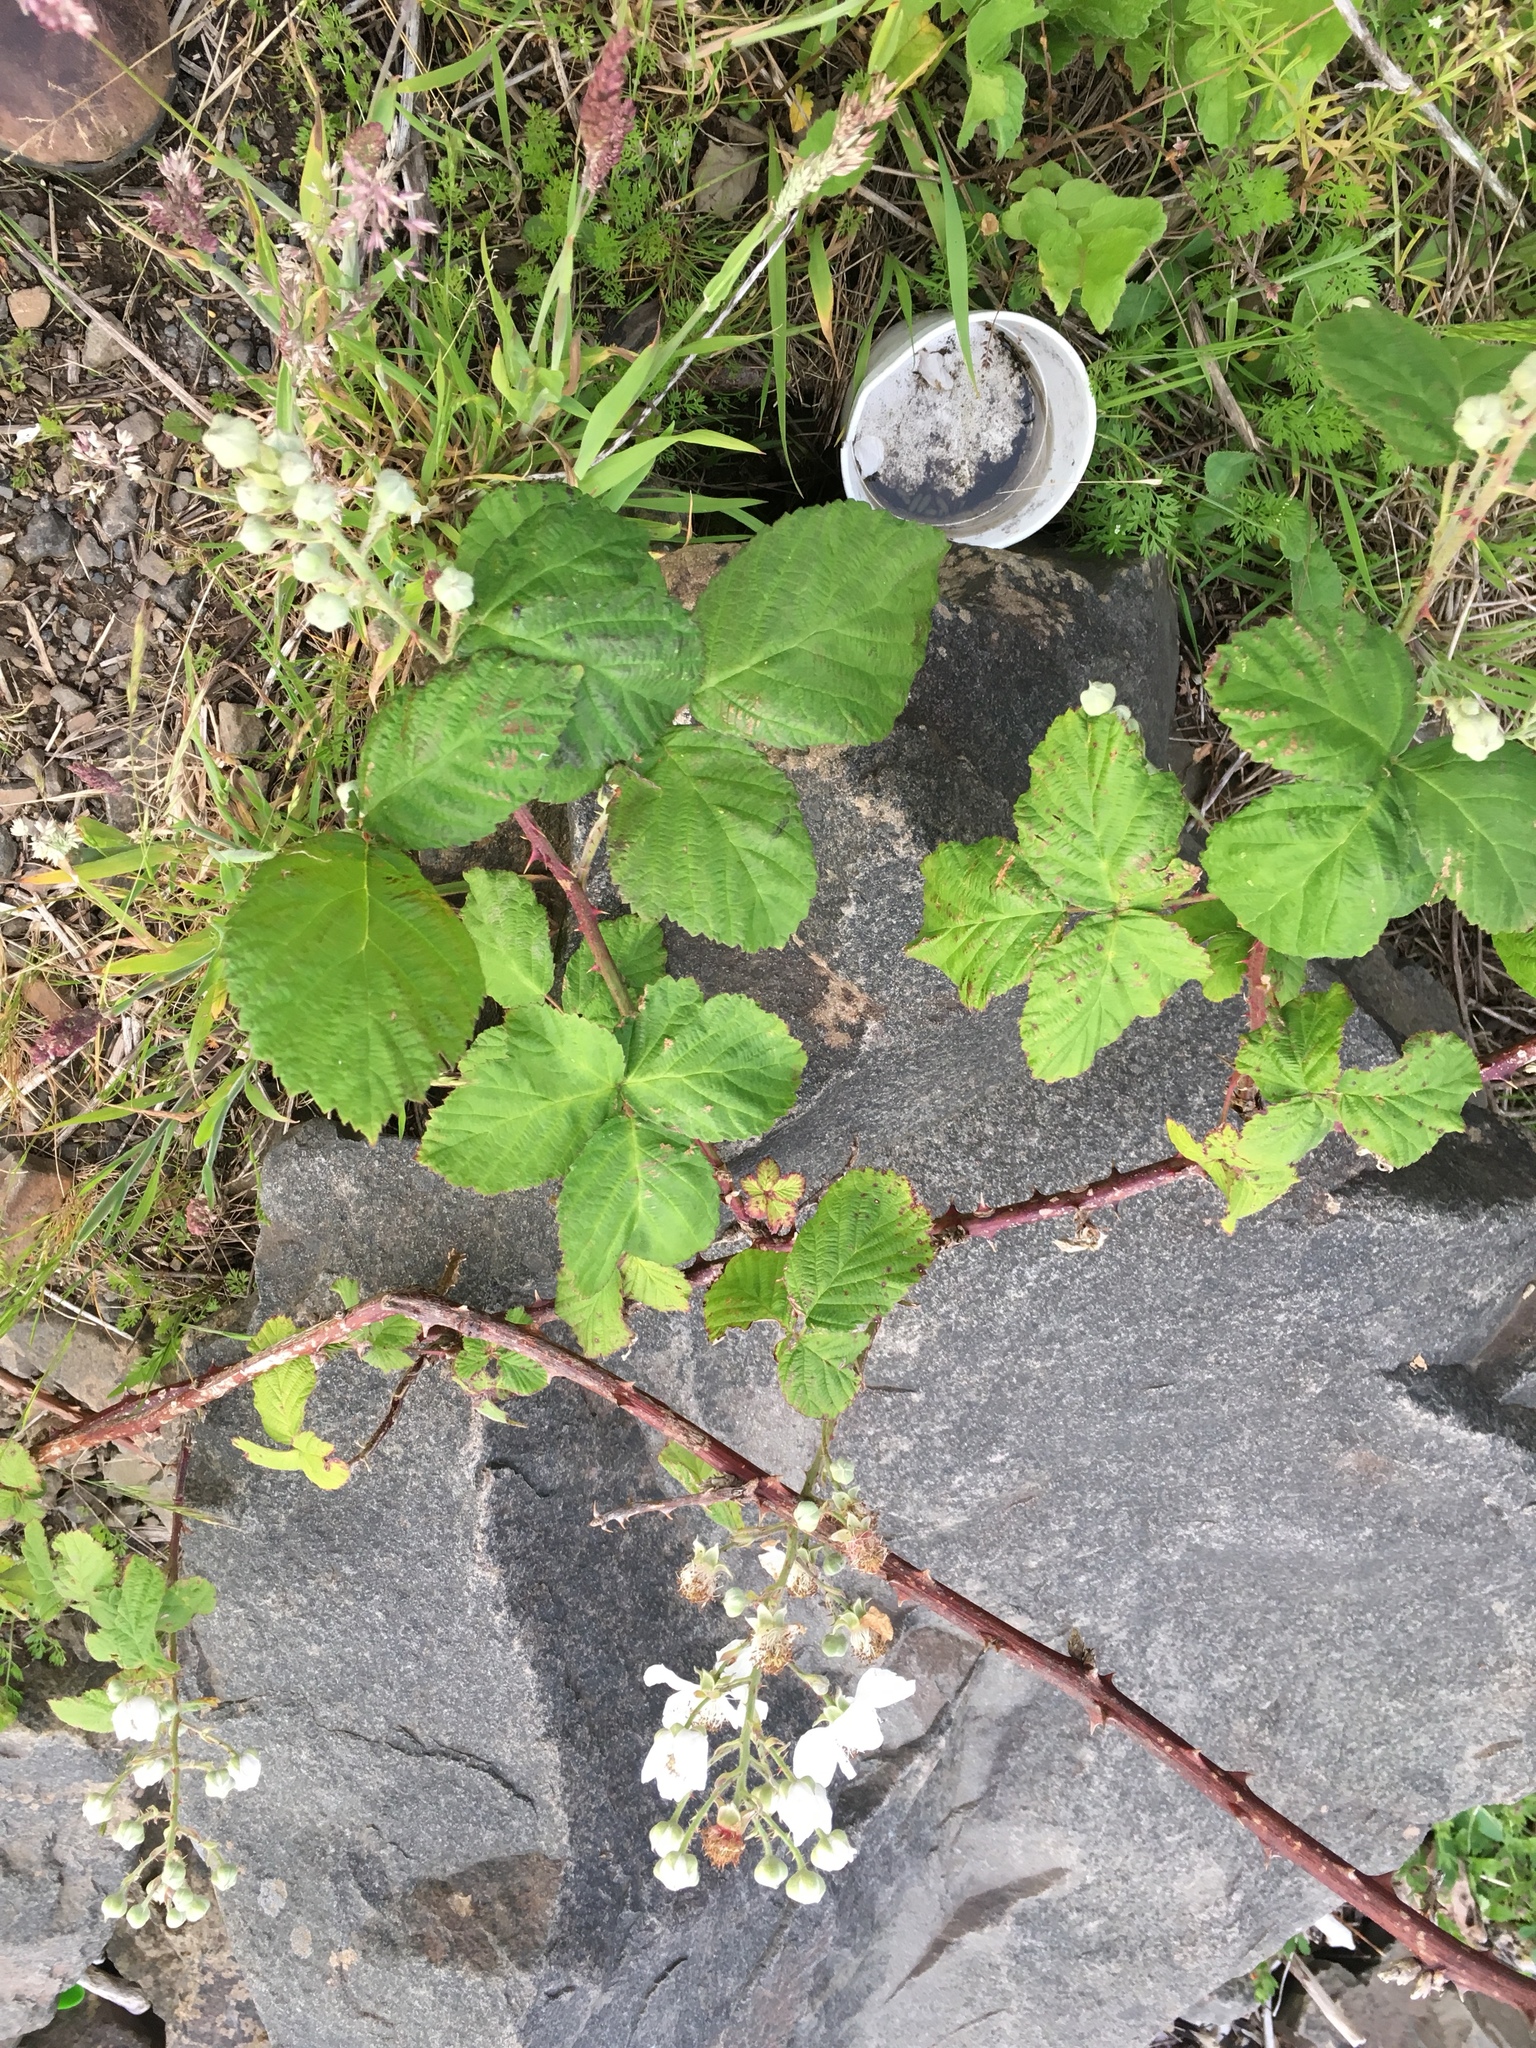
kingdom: Plantae
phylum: Tracheophyta
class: Magnoliopsida
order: Rosales
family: Rosaceae
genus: Rubus
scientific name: Rubus armeniacus
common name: Himalayan blackberry
